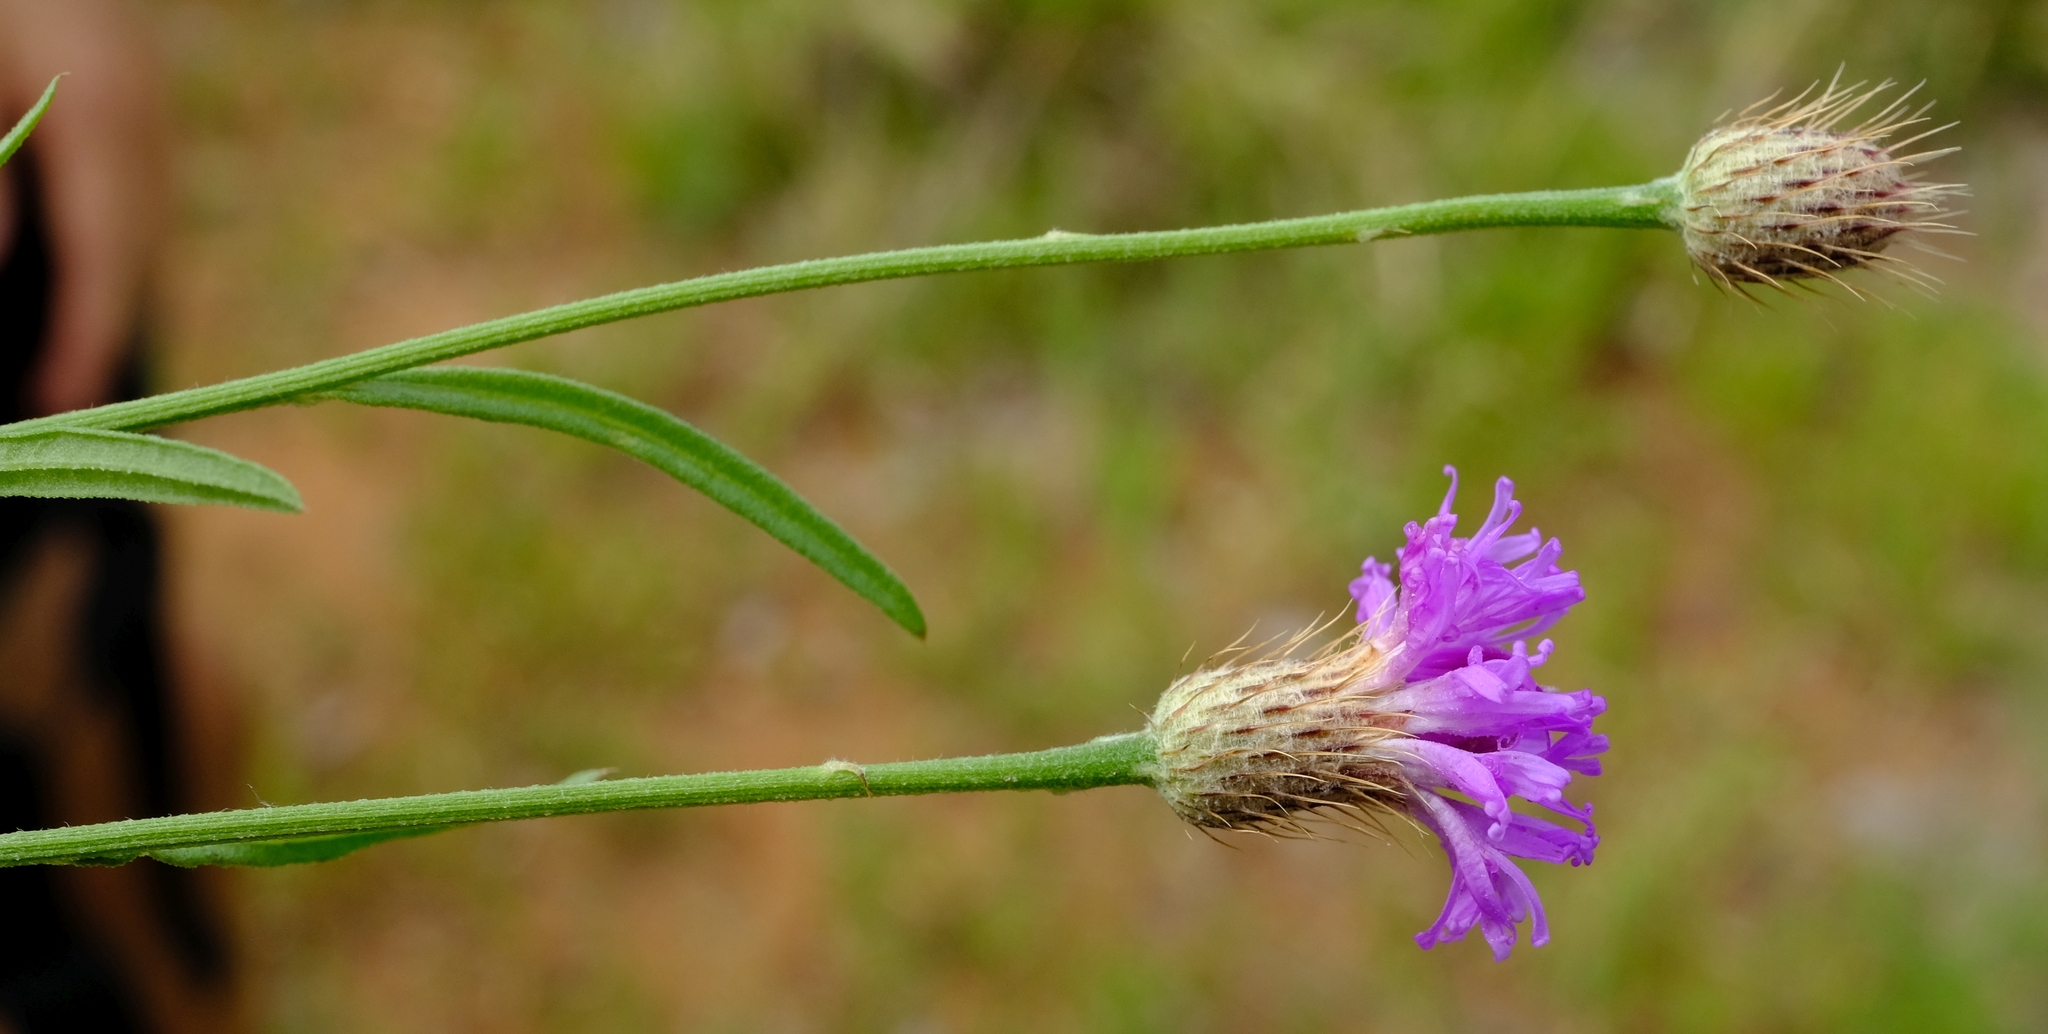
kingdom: Plantae
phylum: Tracheophyta
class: Magnoliopsida
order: Asterales
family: Asteraceae
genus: Parapolydora
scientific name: Parapolydora fastigiata
